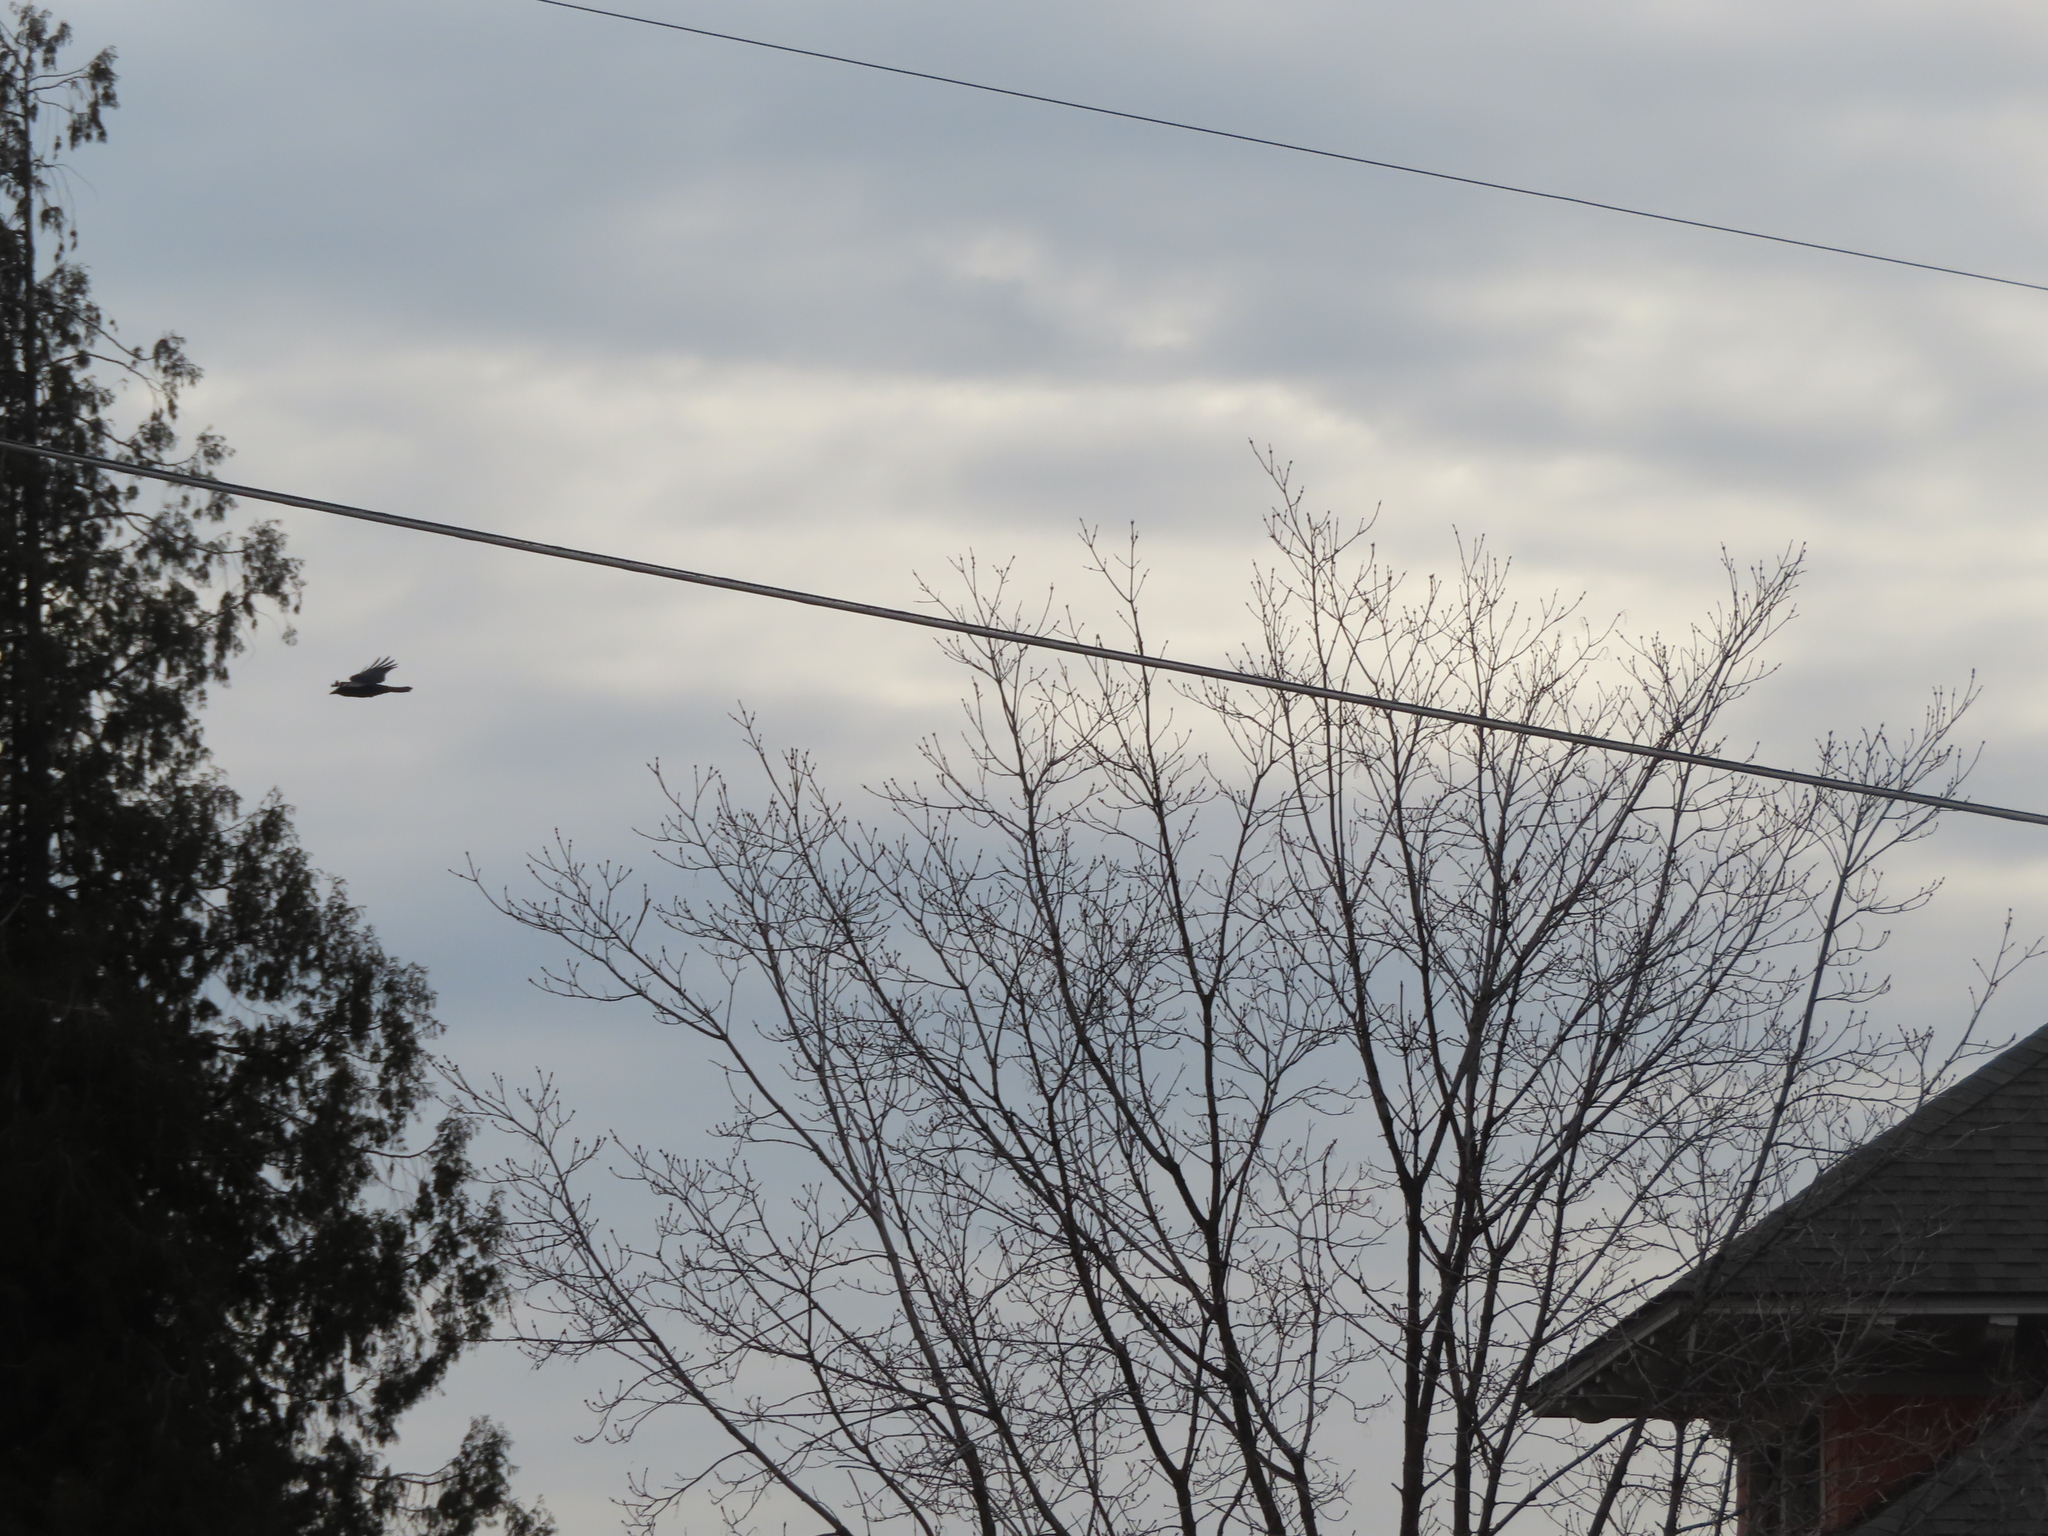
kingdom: Animalia
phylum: Chordata
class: Aves
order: Passeriformes
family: Corvidae
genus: Corvus
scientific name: Corvus brachyrhynchos
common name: American crow
